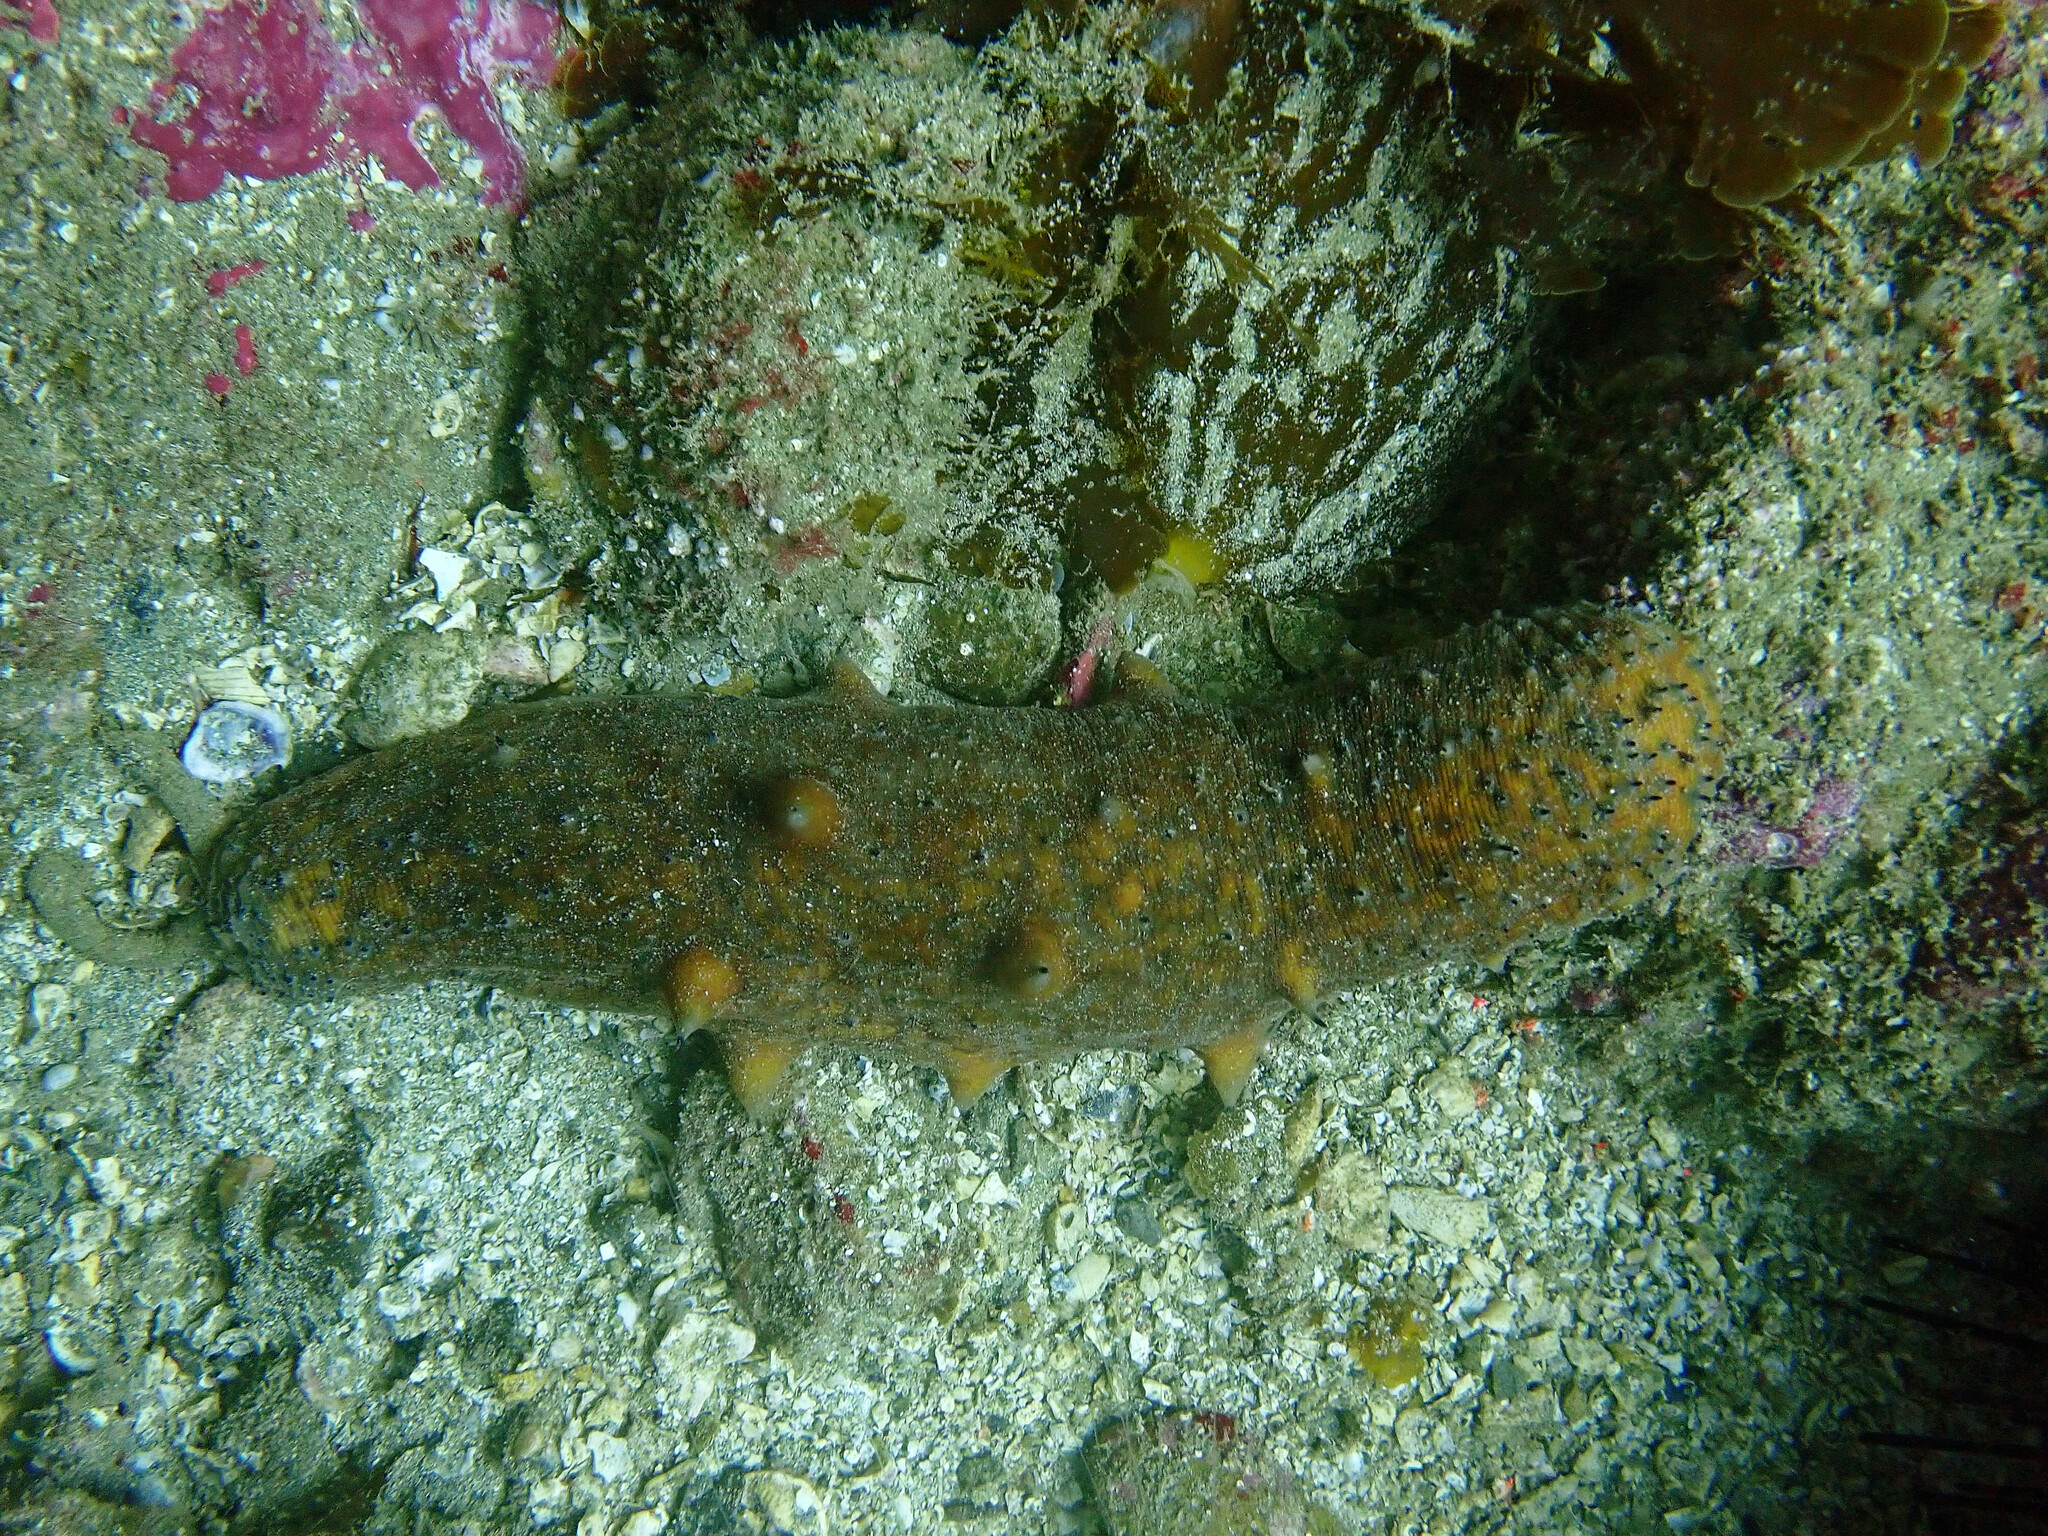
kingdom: Animalia
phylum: Echinodermata
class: Holothuroidea
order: Synallactida
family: Stichopodidae
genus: Apostichopus
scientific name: Apostichopus parvimensis
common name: Warty sea cucumber
